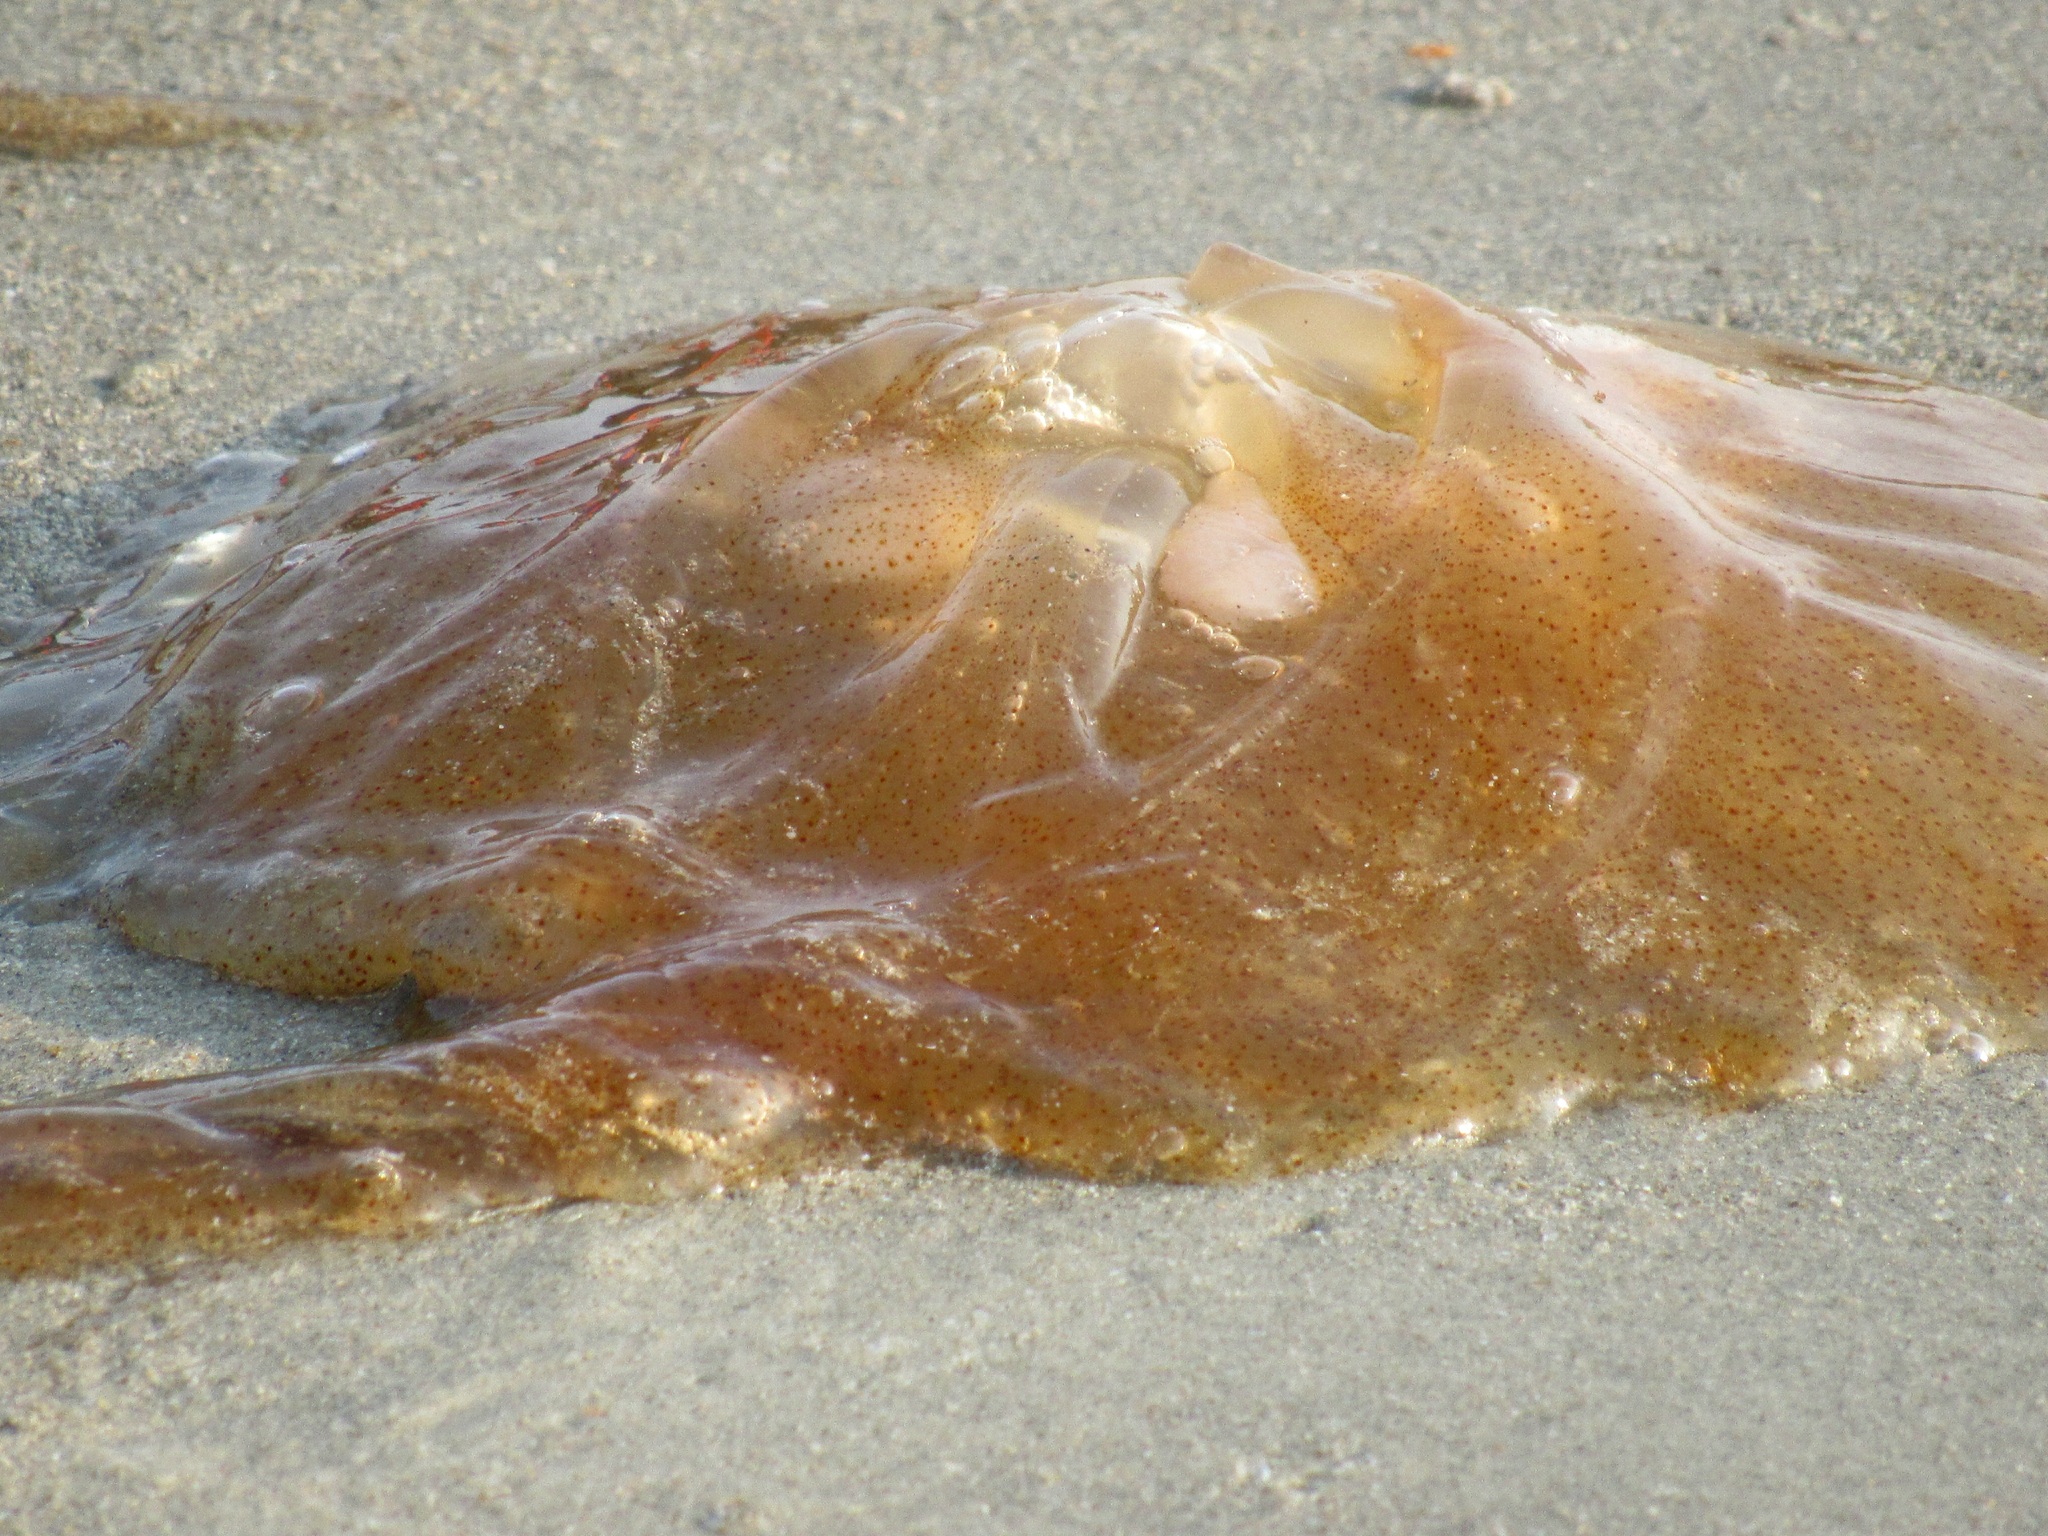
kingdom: Animalia
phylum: Cnidaria
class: Scyphozoa
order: Semaeostomeae
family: Pelagiidae
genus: Chrysaora
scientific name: Chrysaora chinensis
